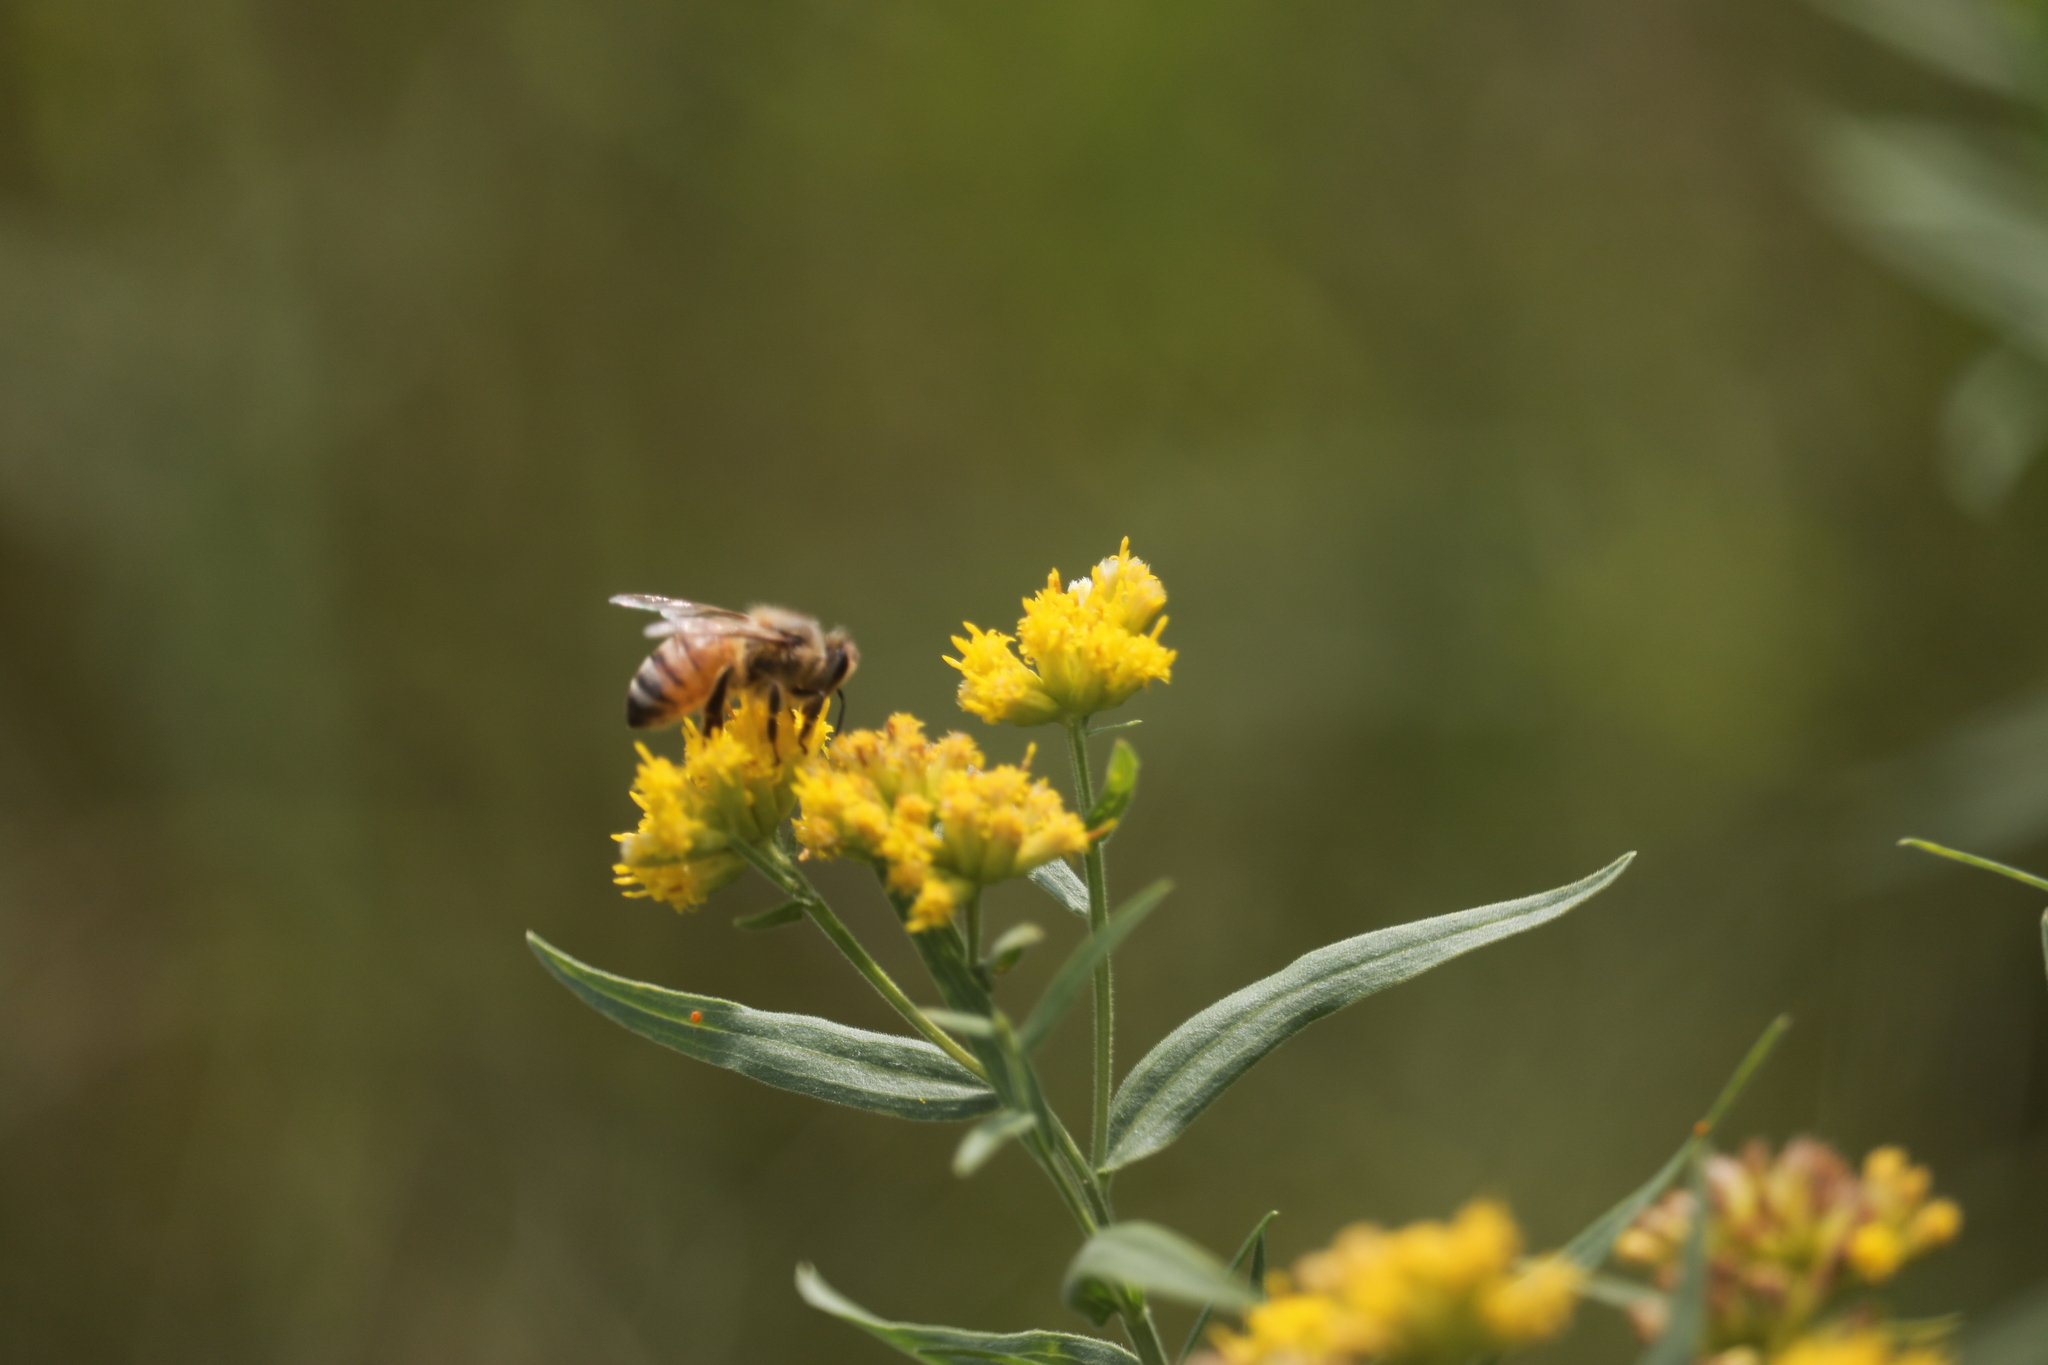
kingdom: Animalia
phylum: Arthropoda
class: Insecta
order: Hymenoptera
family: Apidae
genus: Apis
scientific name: Apis mellifera
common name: Honey bee
